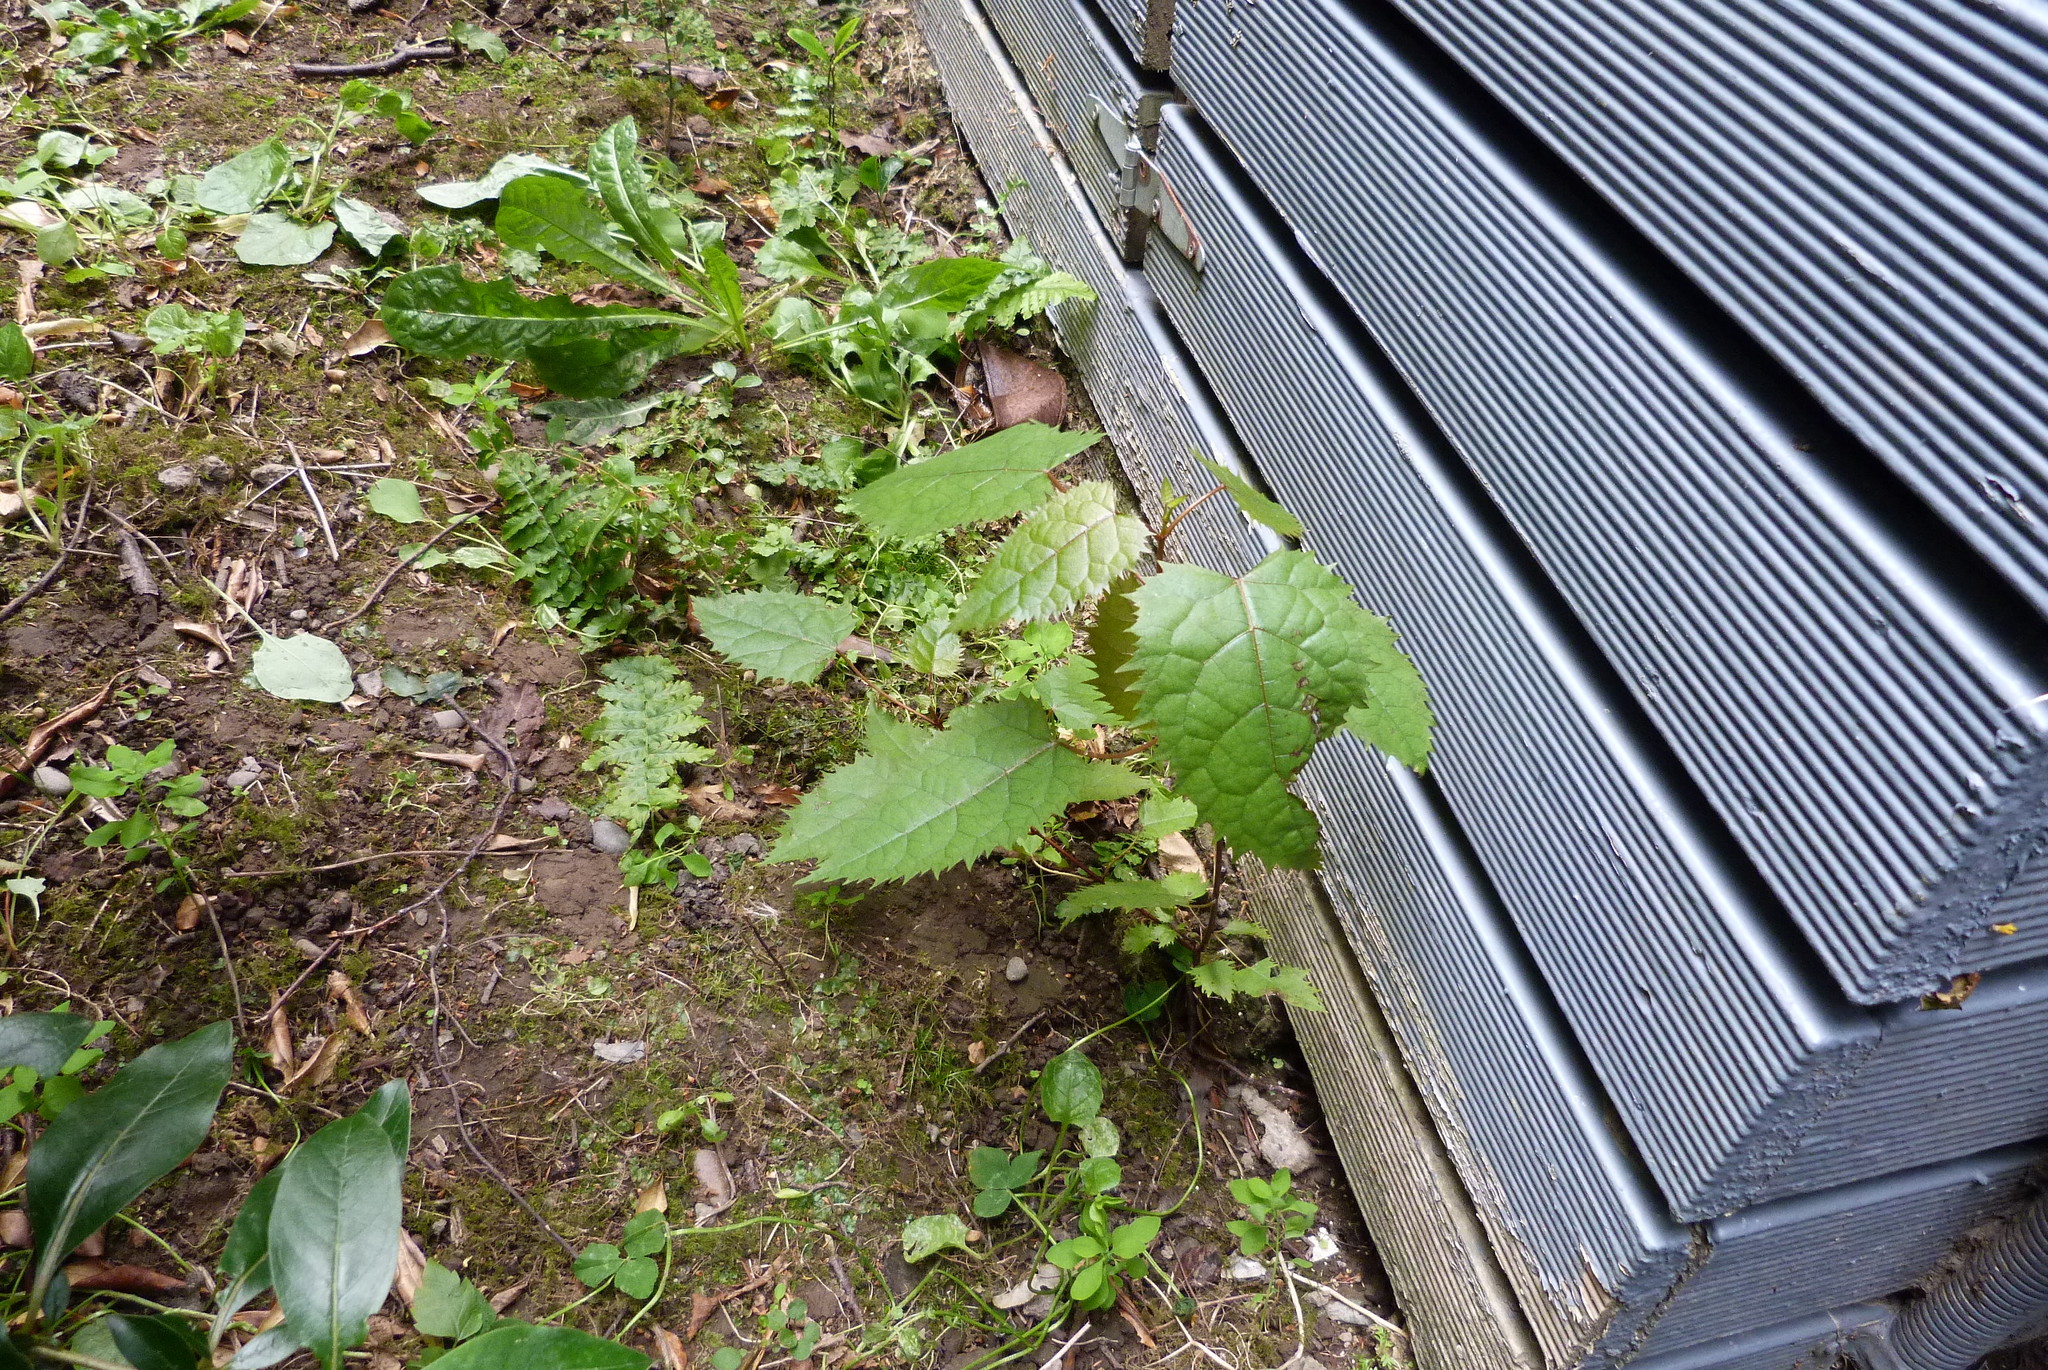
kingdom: Plantae
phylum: Tracheophyta
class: Magnoliopsida
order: Oxalidales
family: Elaeocarpaceae
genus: Aristotelia
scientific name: Aristotelia serrata
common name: New zealand wineberry
